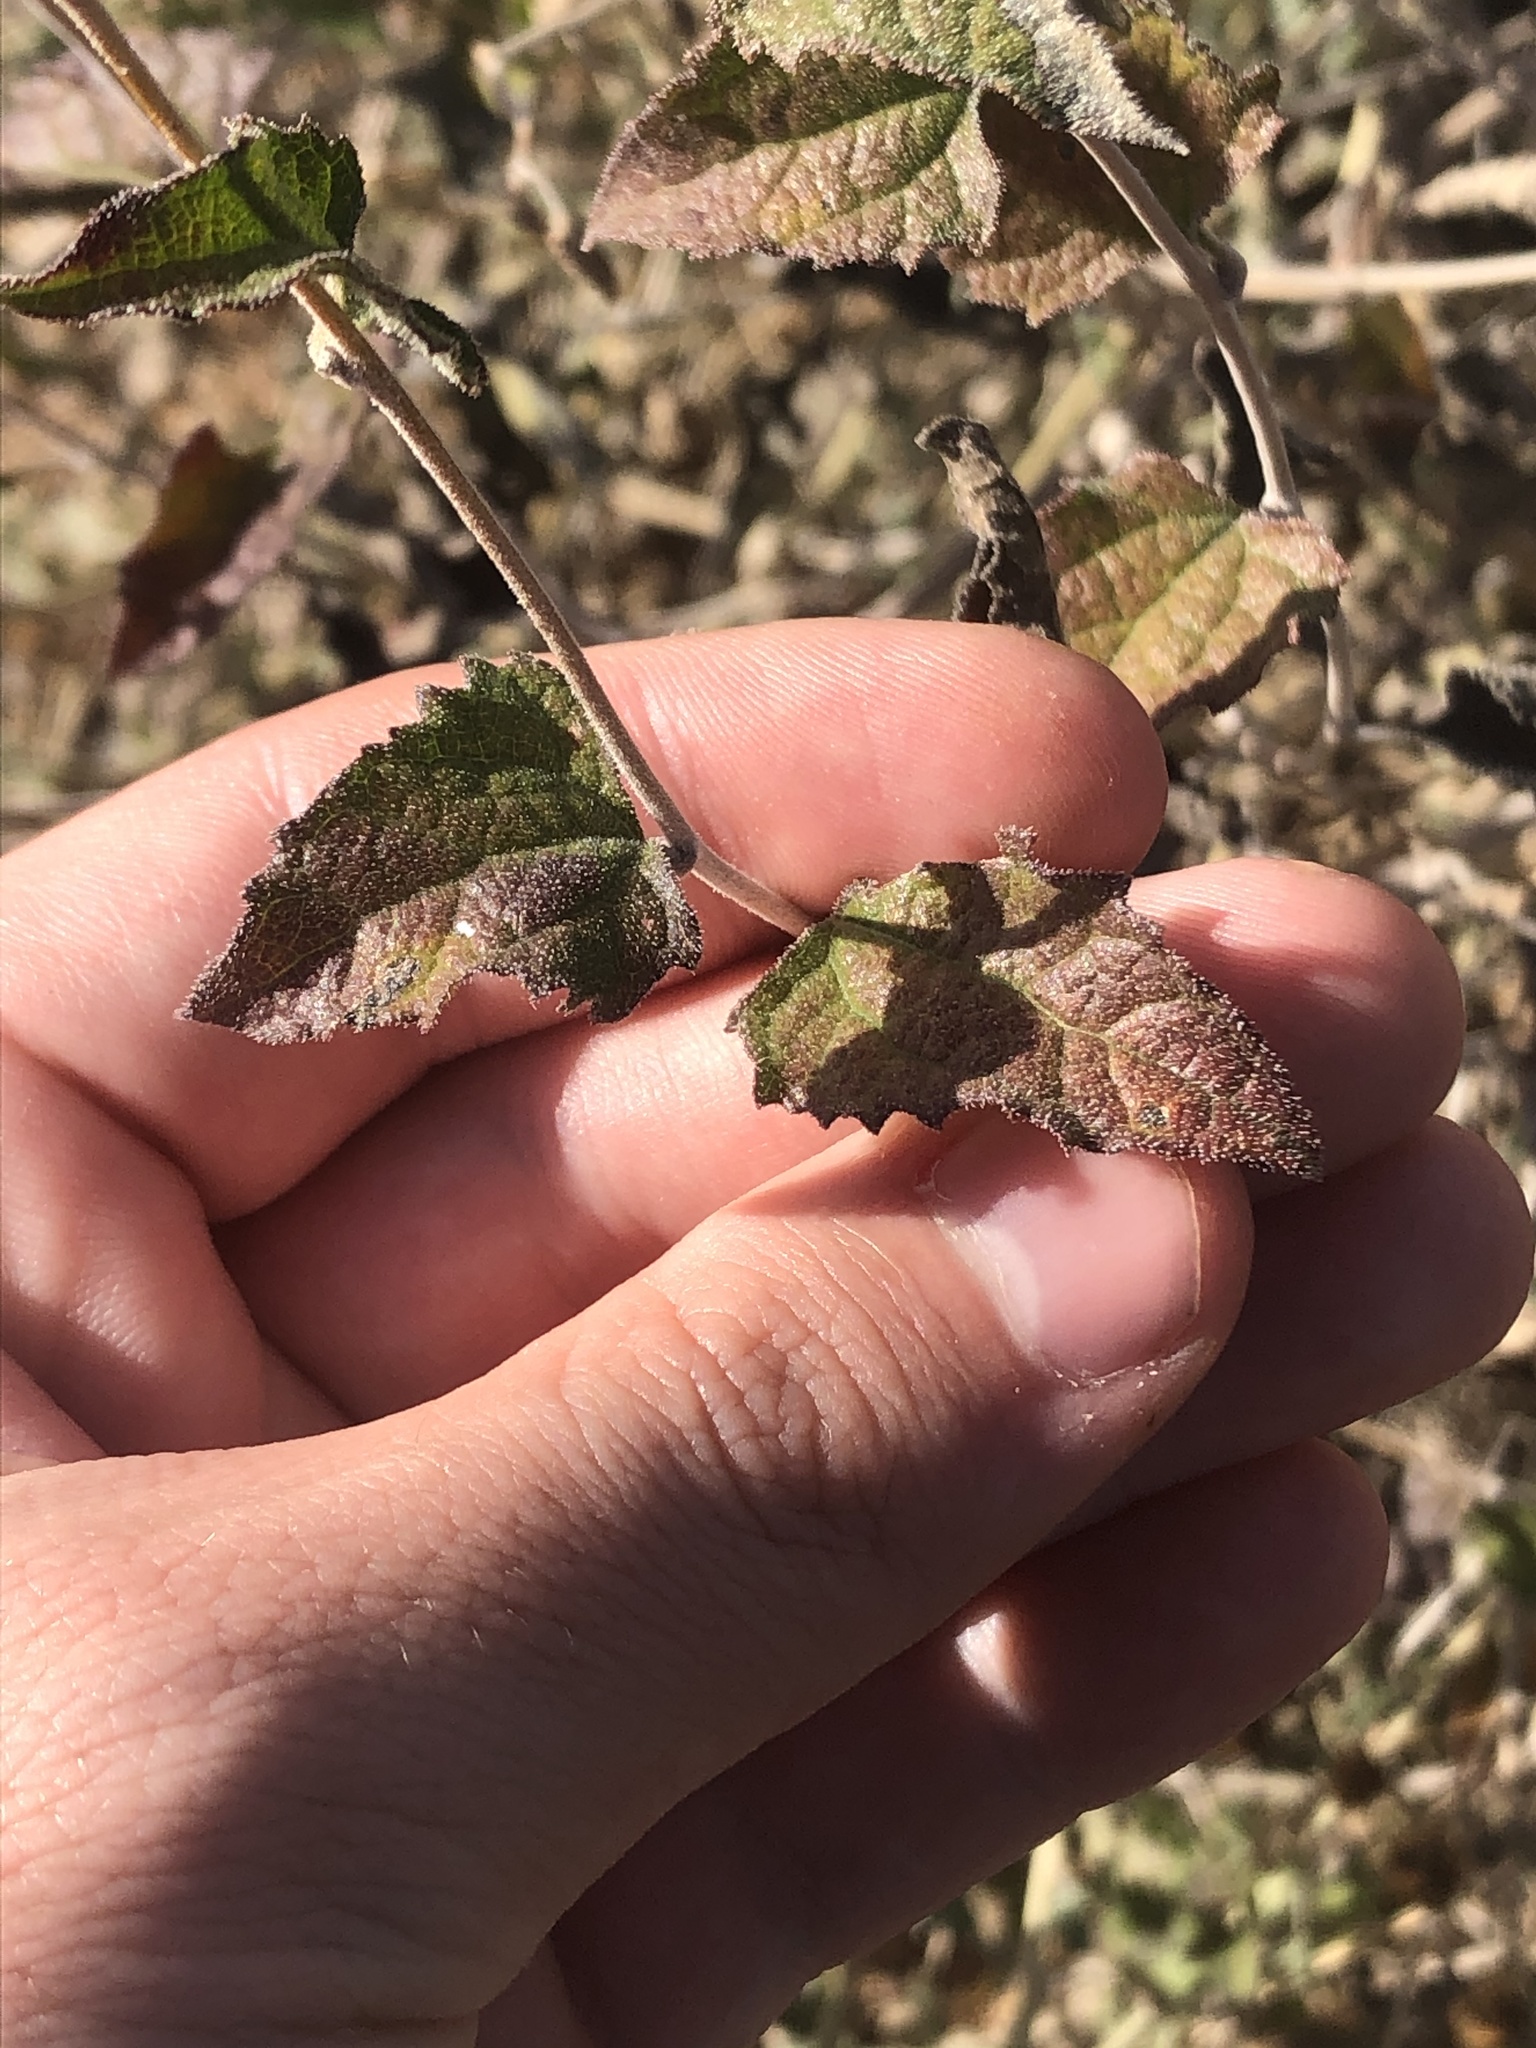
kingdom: Plantae
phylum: Tracheophyta
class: Magnoliopsida
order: Asterales
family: Asteraceae
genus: Bahiopsis
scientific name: Bahiopsis parishii
